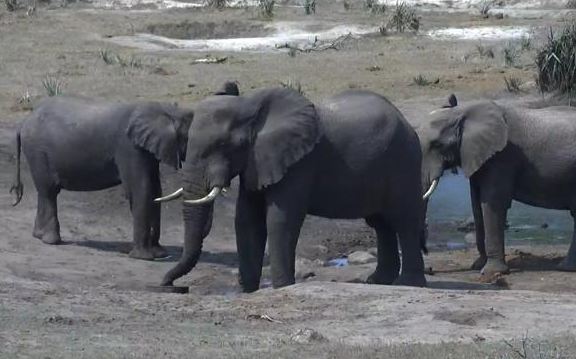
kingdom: Animalia
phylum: Chordata
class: Mammalia
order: Proboscidea
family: Elephantidae
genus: Loxodonta
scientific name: Loxodonta africana
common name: African elephant
